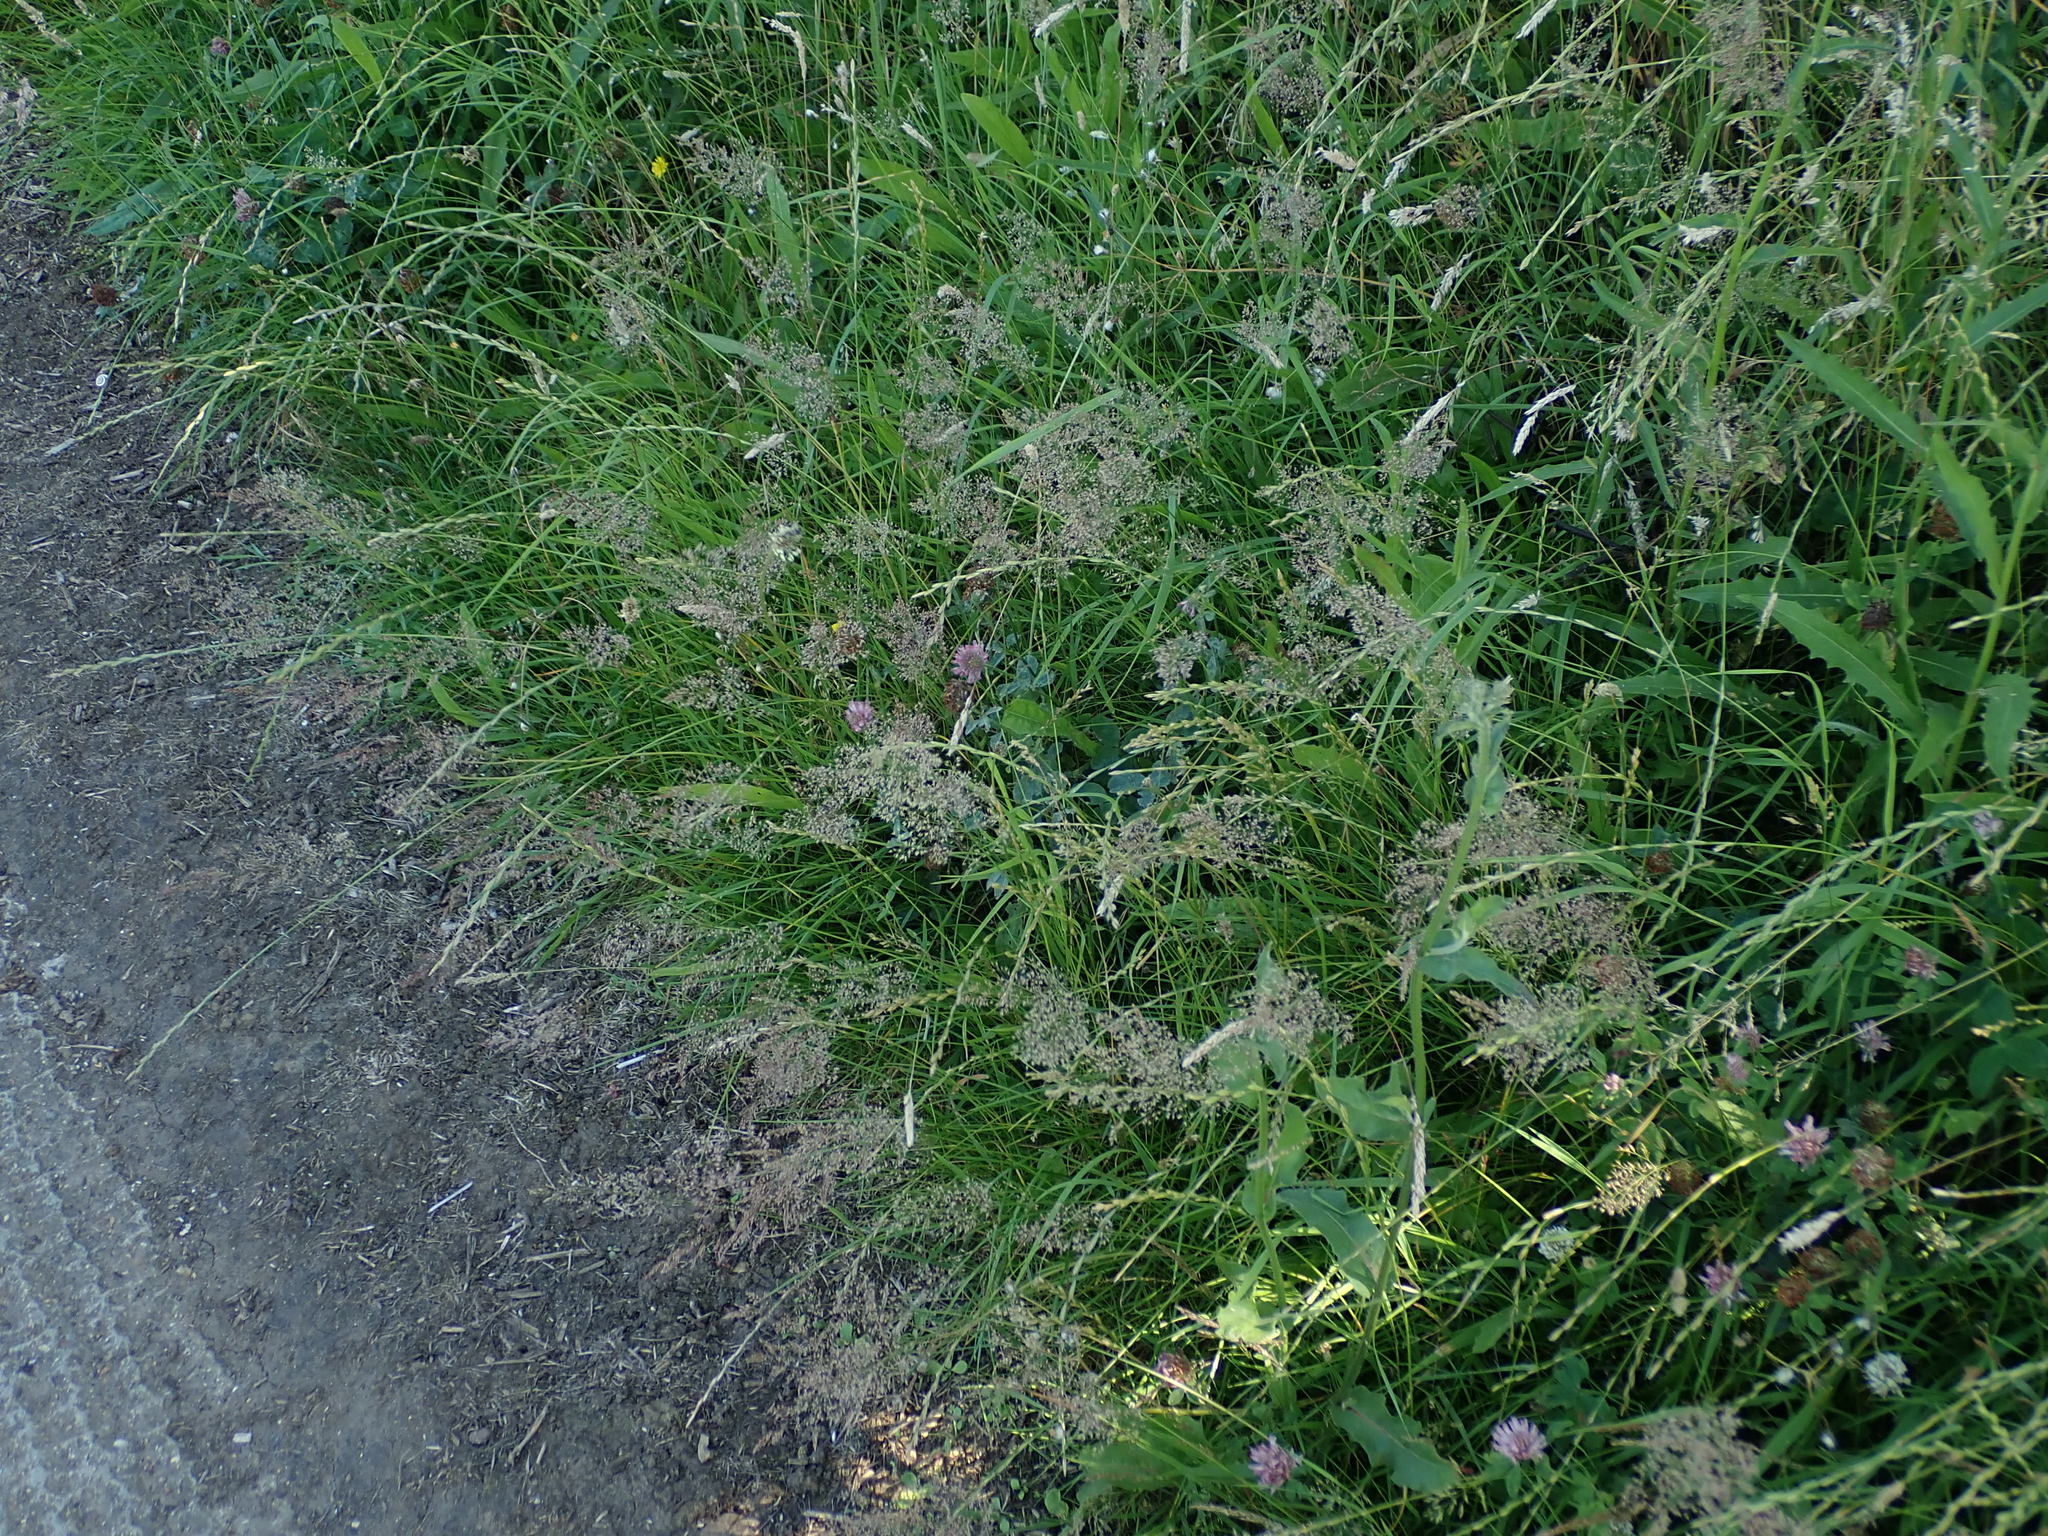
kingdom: Plantae
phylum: Tracheophyta
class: Liliopsida
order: Poales
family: Poaceae
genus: Agrostis
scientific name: Agrostis capillaris
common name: Colonial bentgrass
